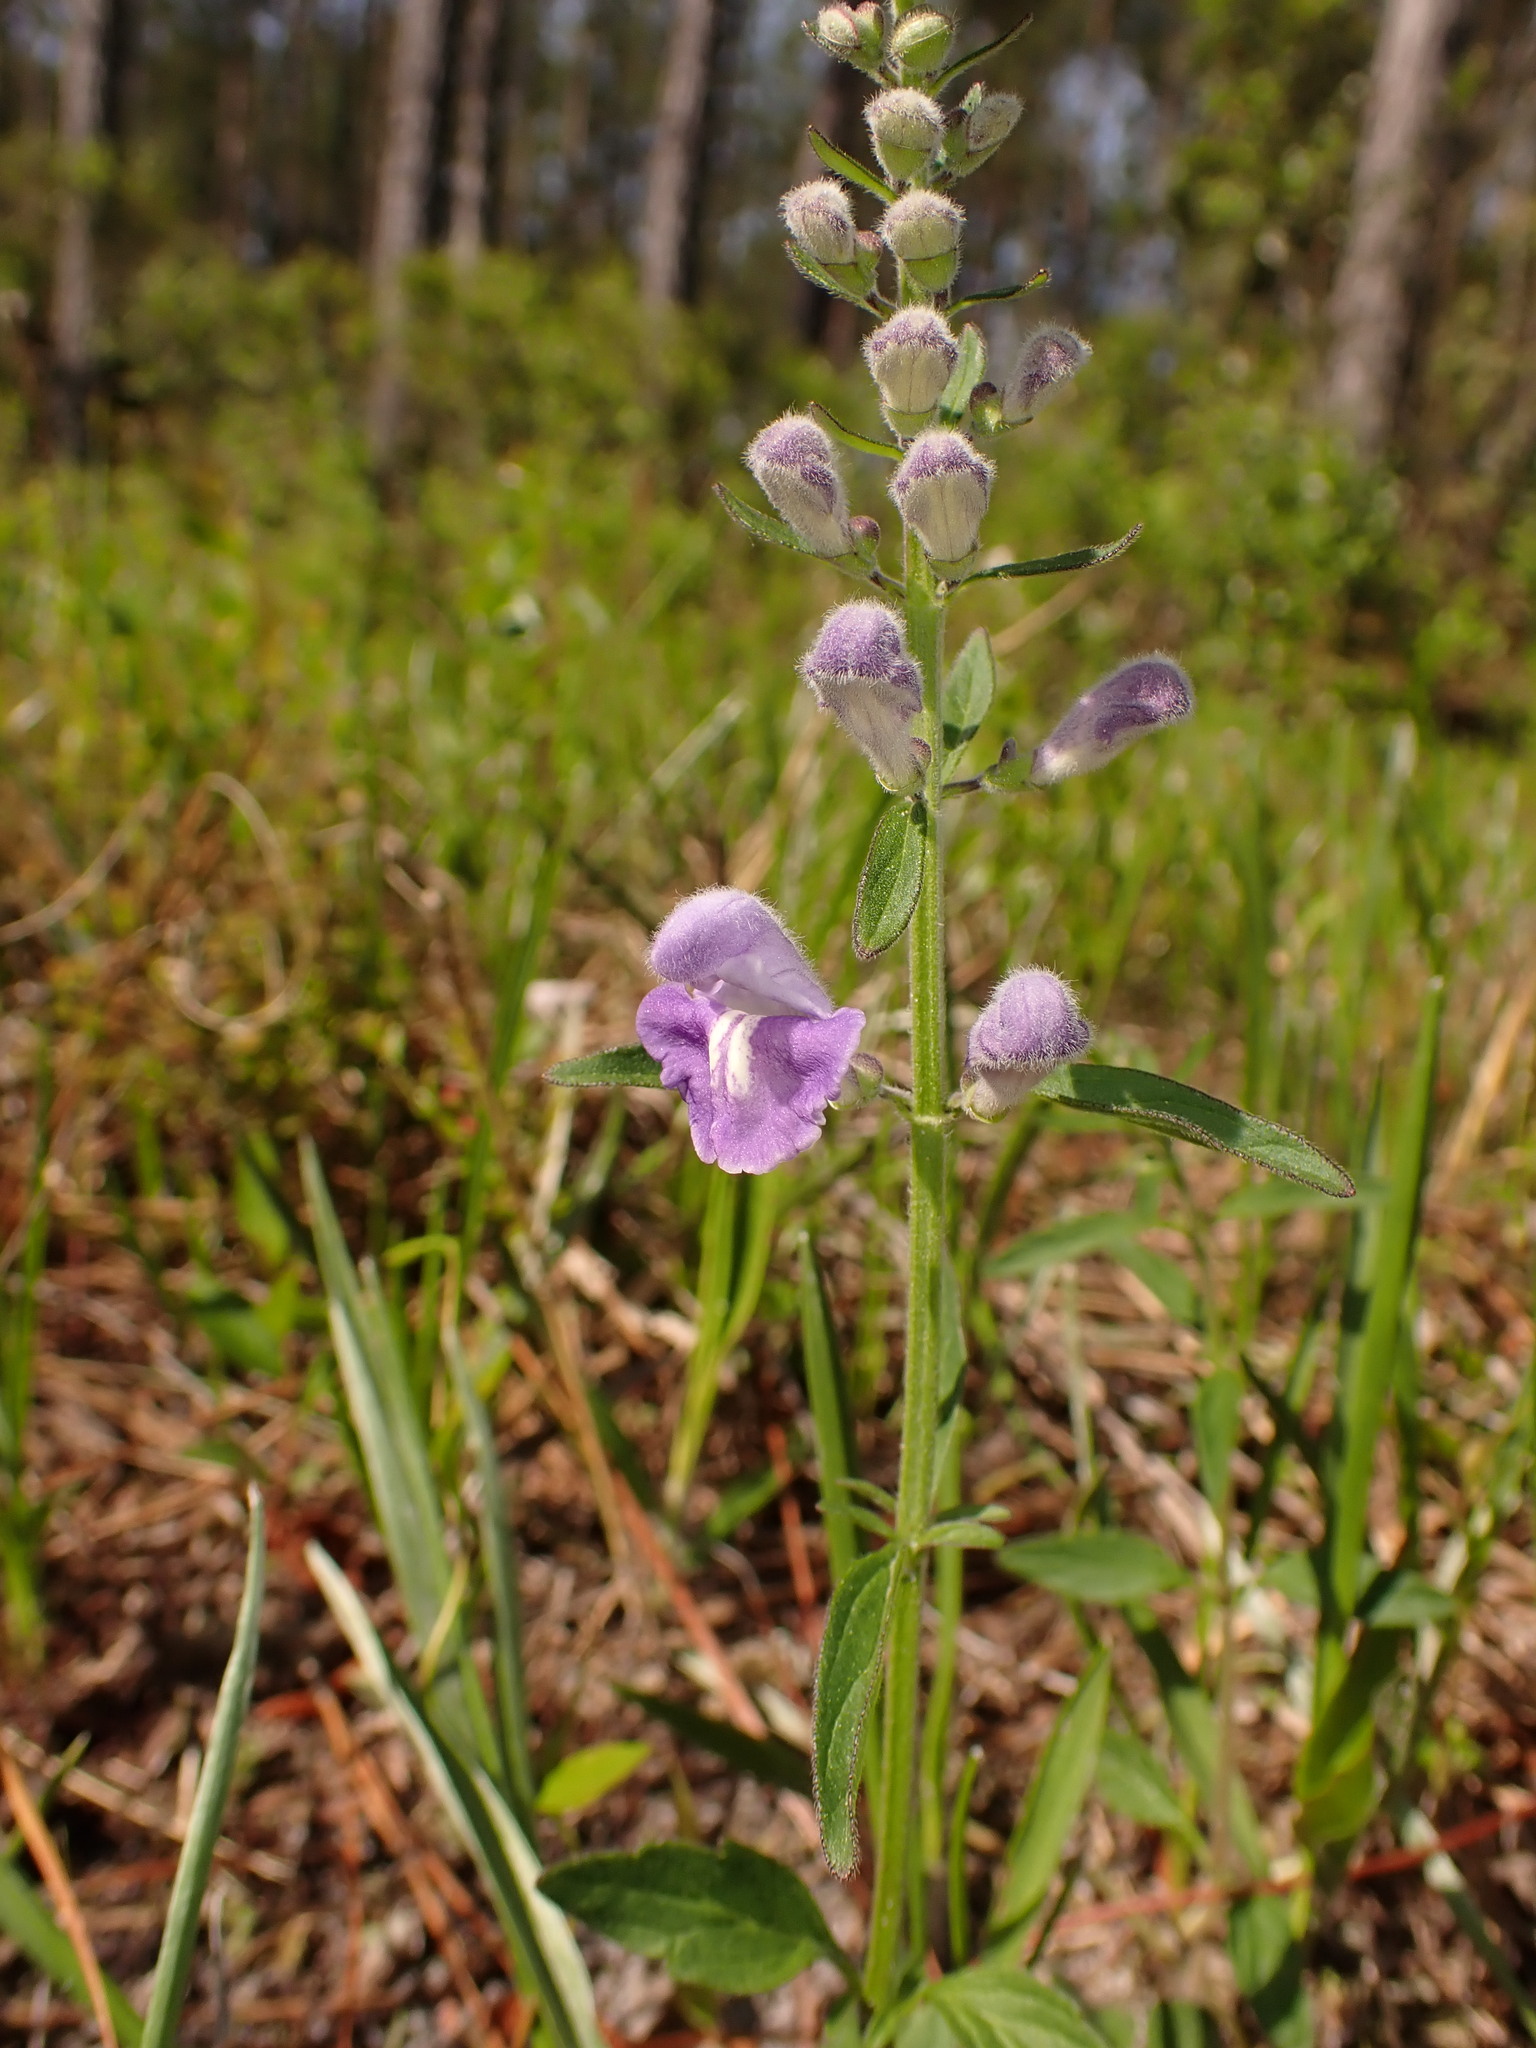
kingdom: Plantae
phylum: Tracheophyta
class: Magnoliopsida
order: Lamiales
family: Lamiaceae
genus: Scutellaria
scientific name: Scutellaria integrifolia
